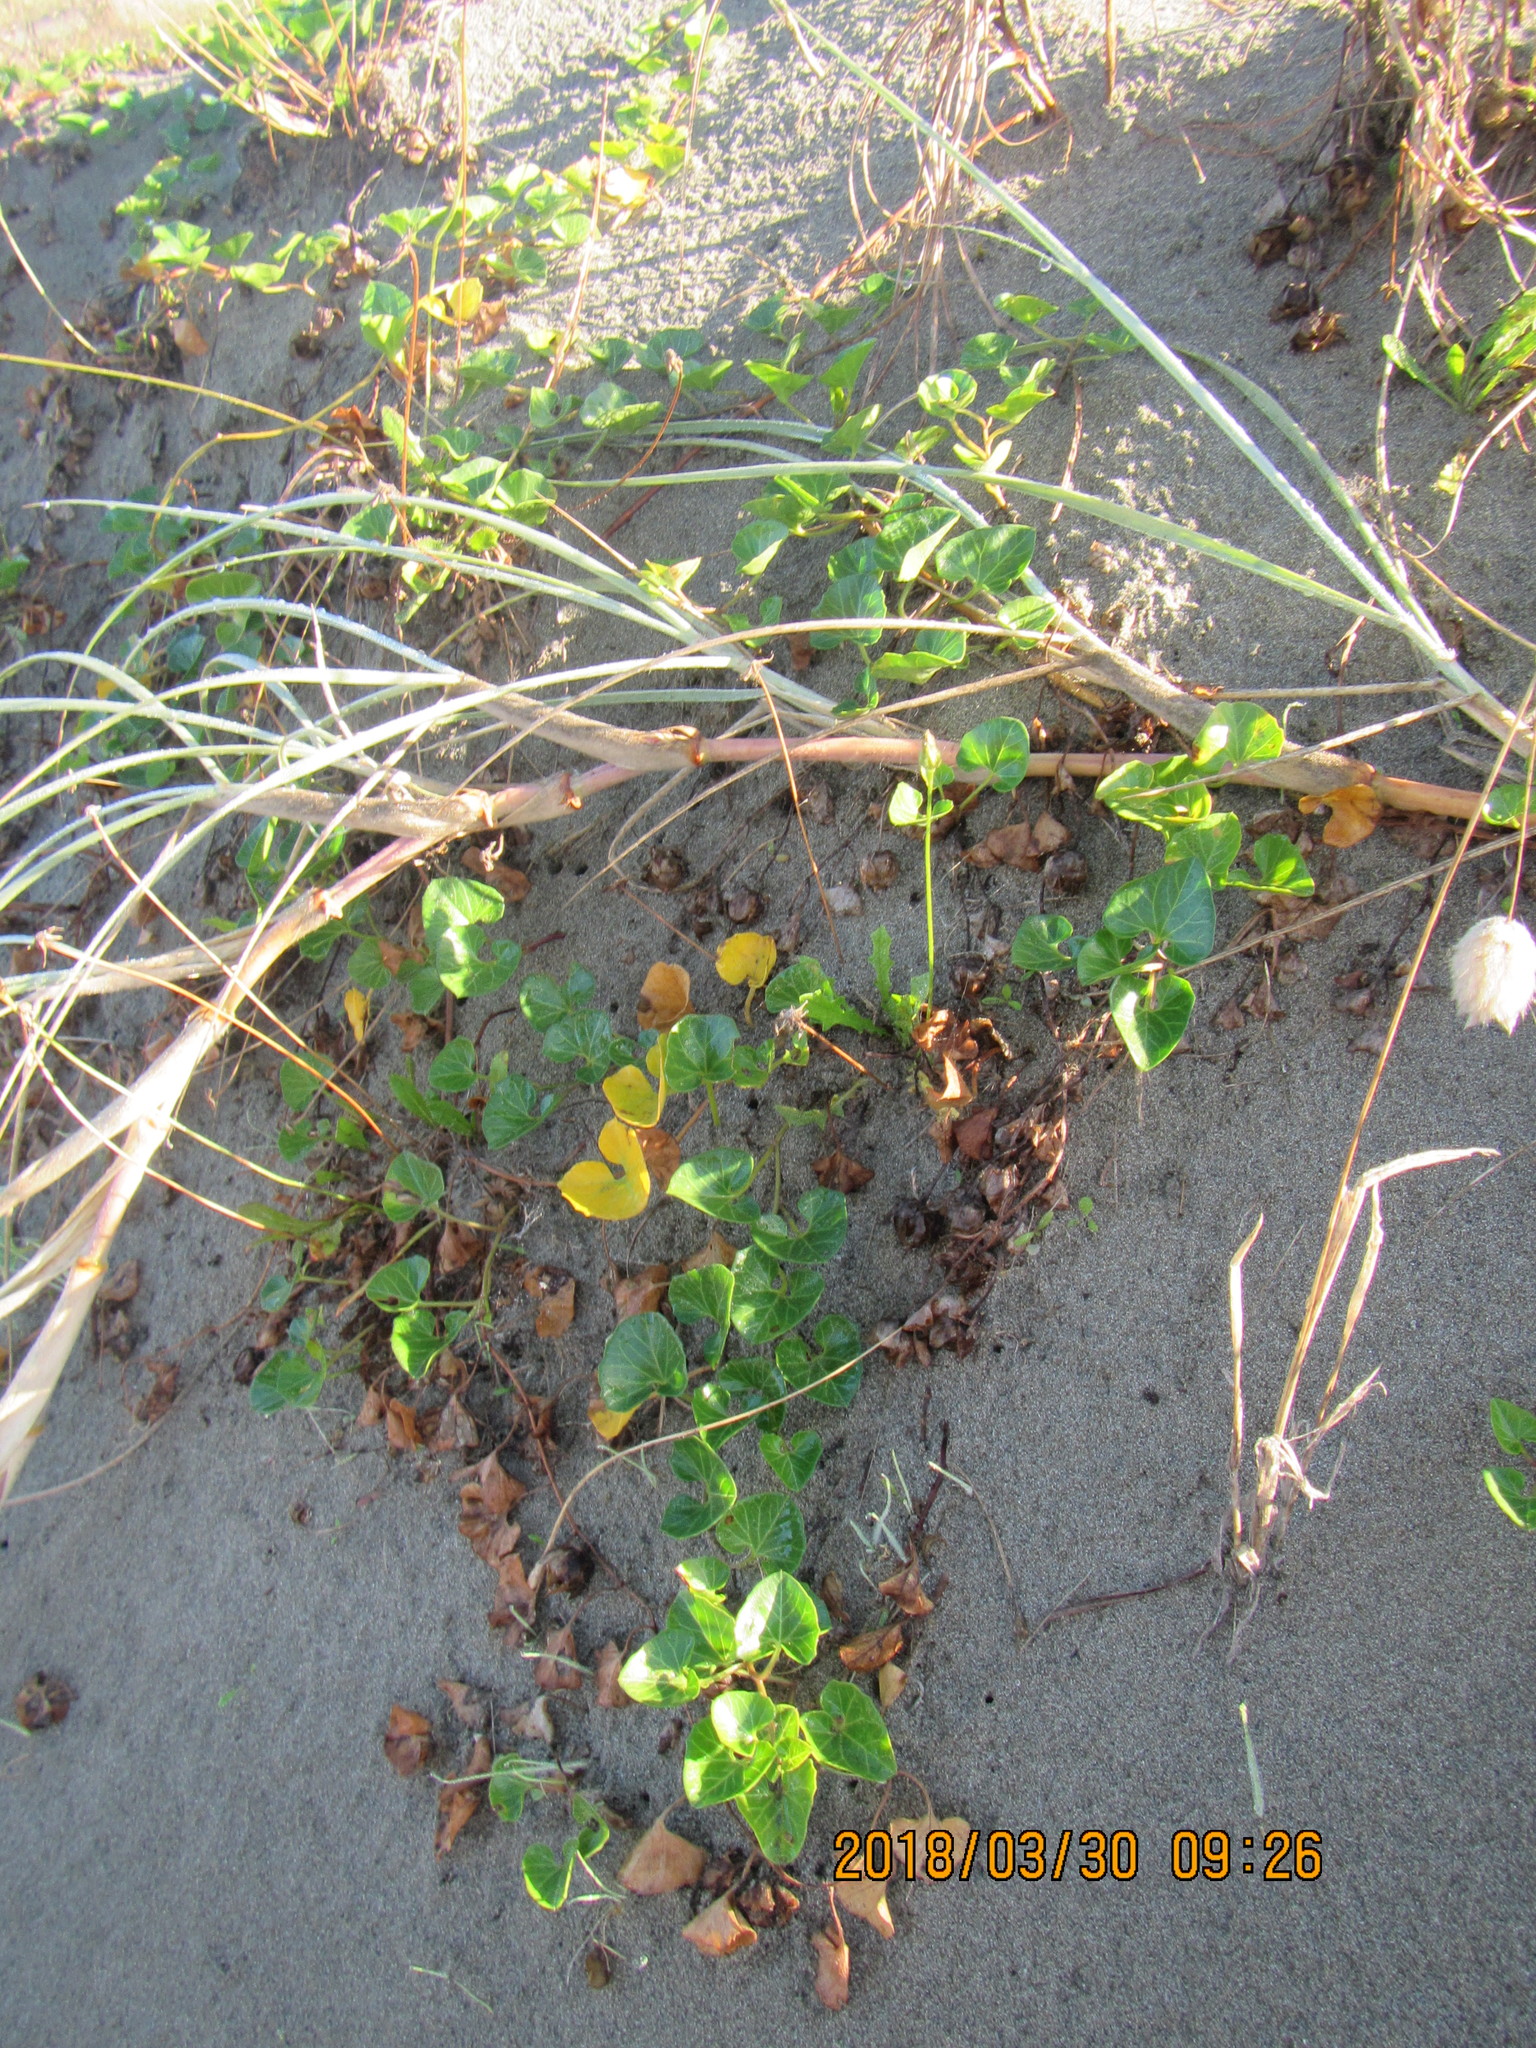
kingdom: Plantae
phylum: Tracheophyta
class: Magnoliopsida
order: Solanales
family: Convolvulaceae
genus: Calystegia
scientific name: Calystegia soldanella
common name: Sea bindweed
